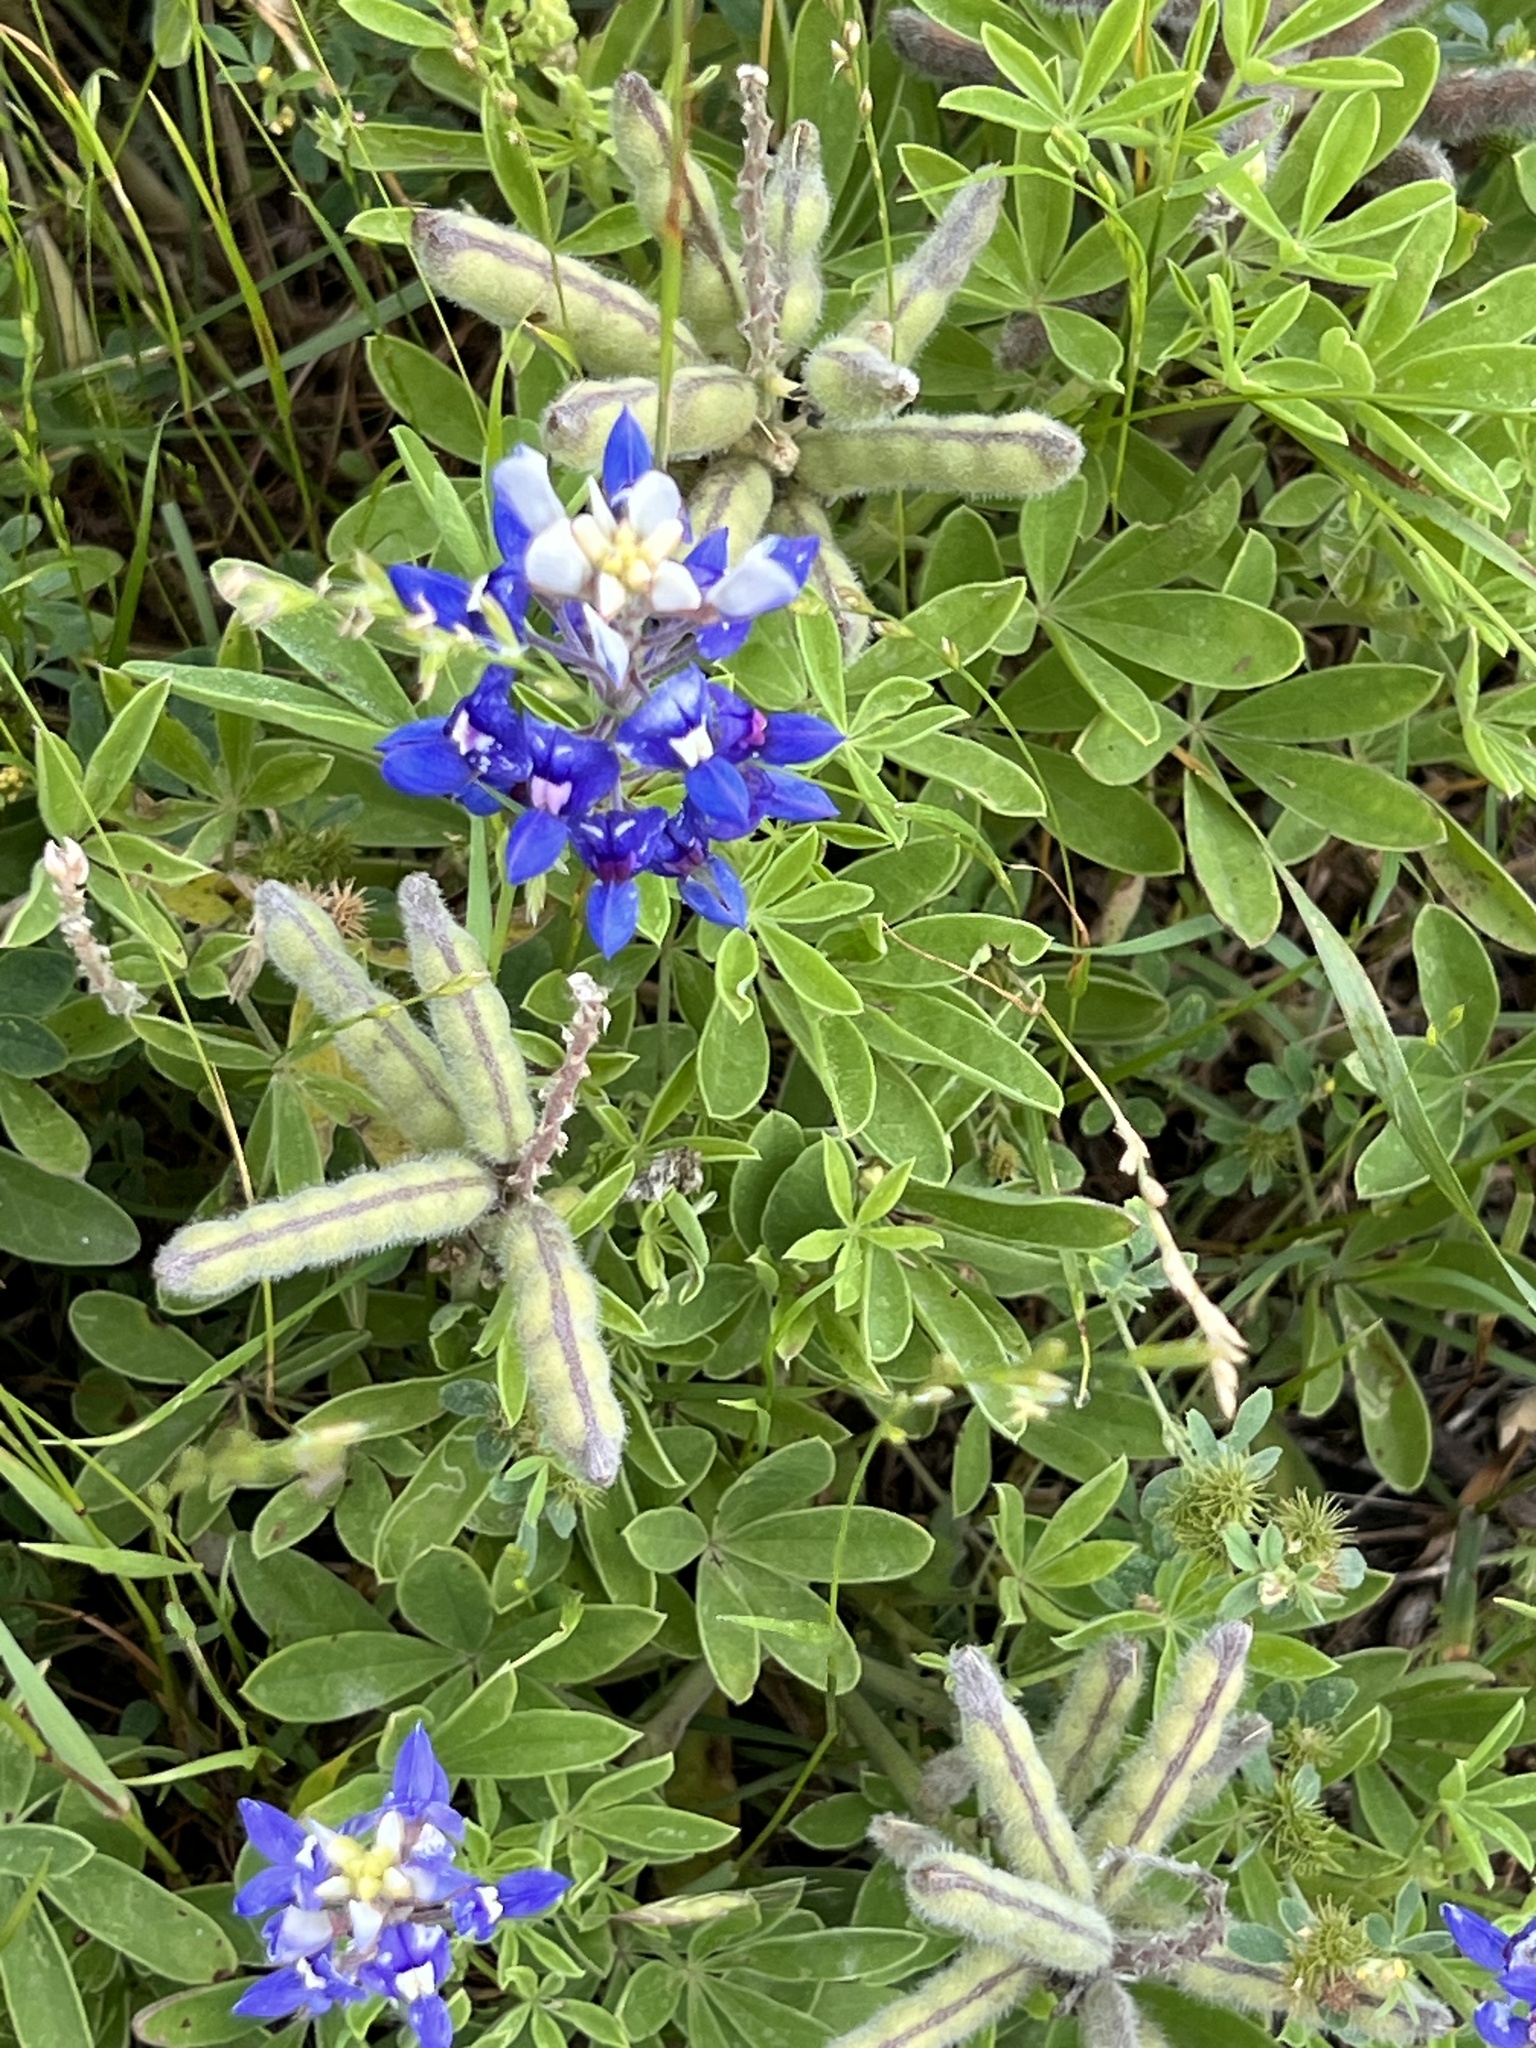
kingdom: Plantae
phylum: Tracheophyta
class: Magnoliopsida
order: Fabales
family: Fabaceae
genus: Lupinus
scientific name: Lupinus texensis
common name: Texas bluebonnet
